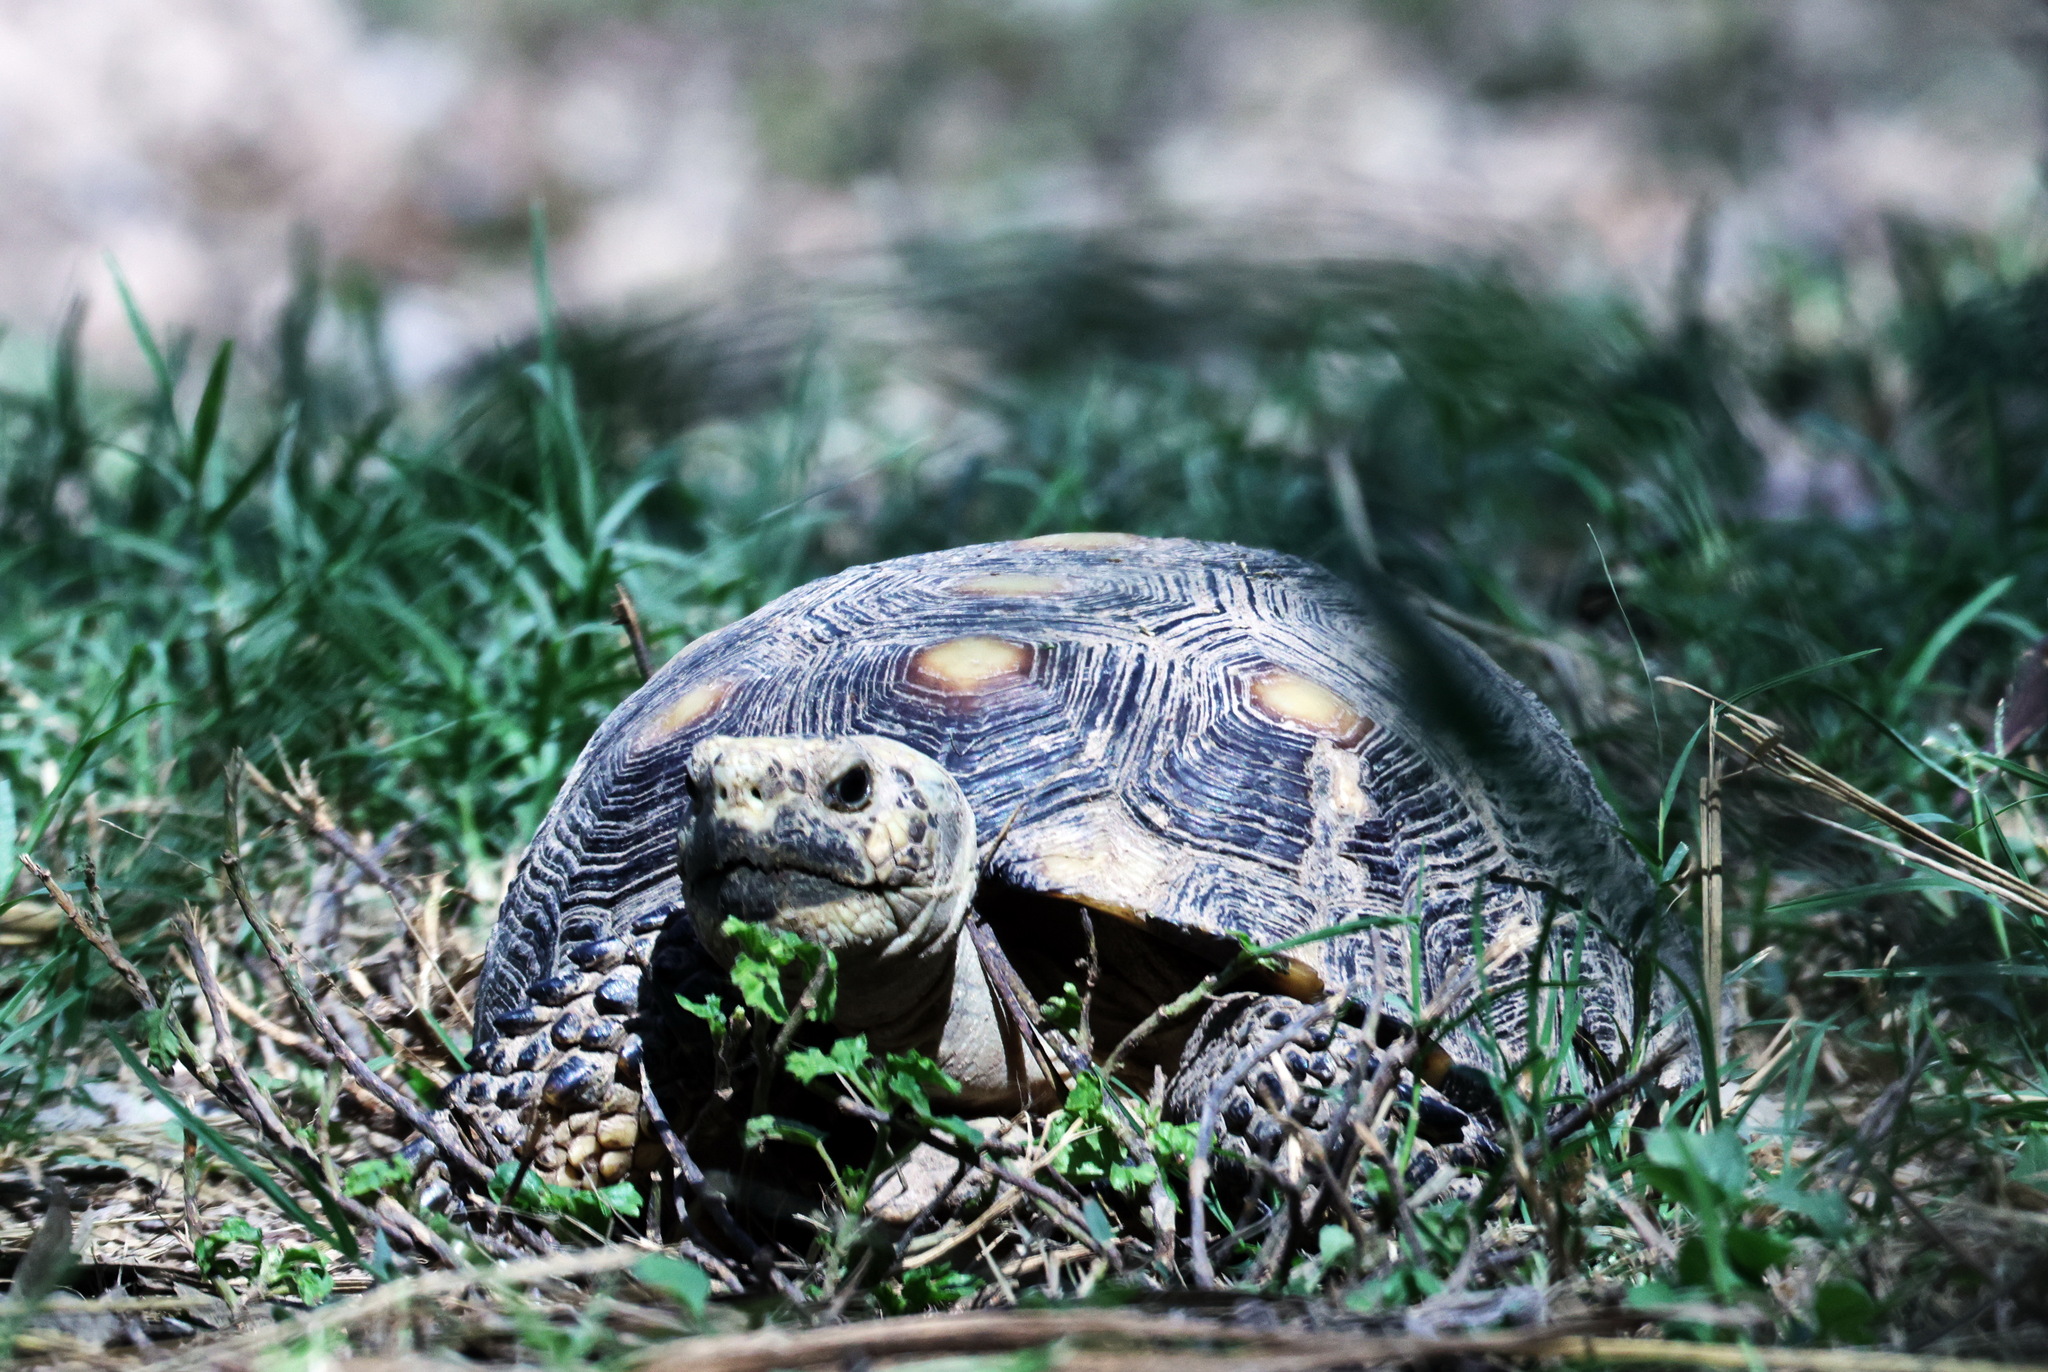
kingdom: Animalia
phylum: Chordata
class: Testudines
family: Testudinidae
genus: Gopherus
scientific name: Gopherus berlandieri
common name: Texas (gopher )tortoise
